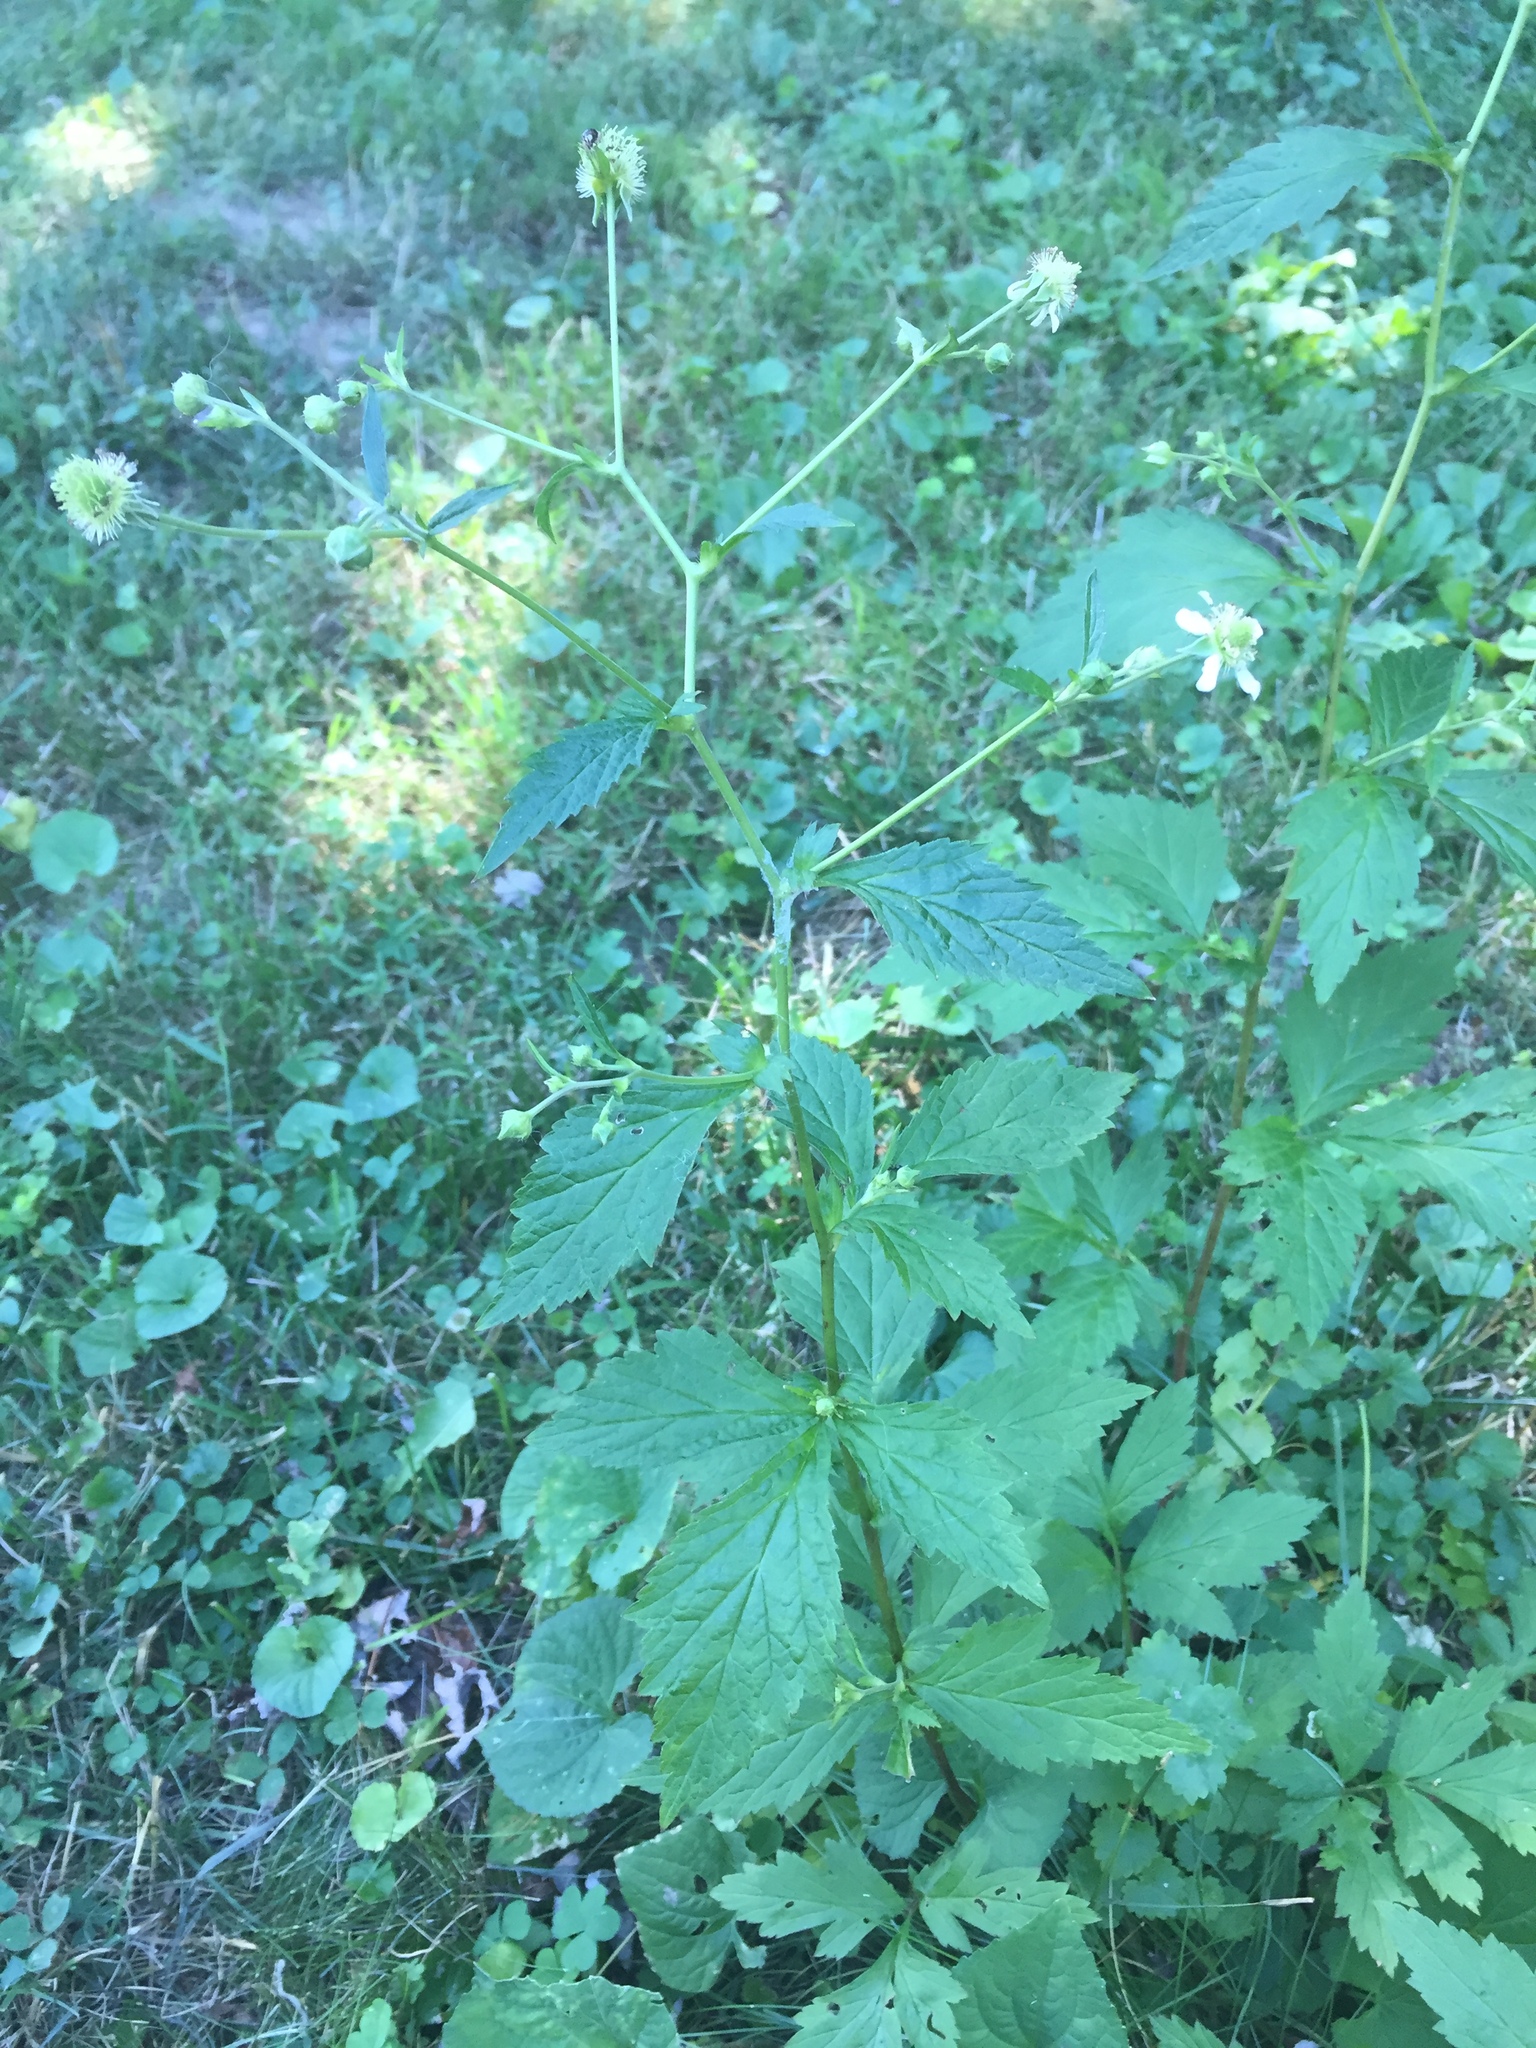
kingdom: Plantae
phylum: Tracheophyta
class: Magnoliopsida
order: Rosales
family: Rosaceae
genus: Geum
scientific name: Geum canadense
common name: White avens
